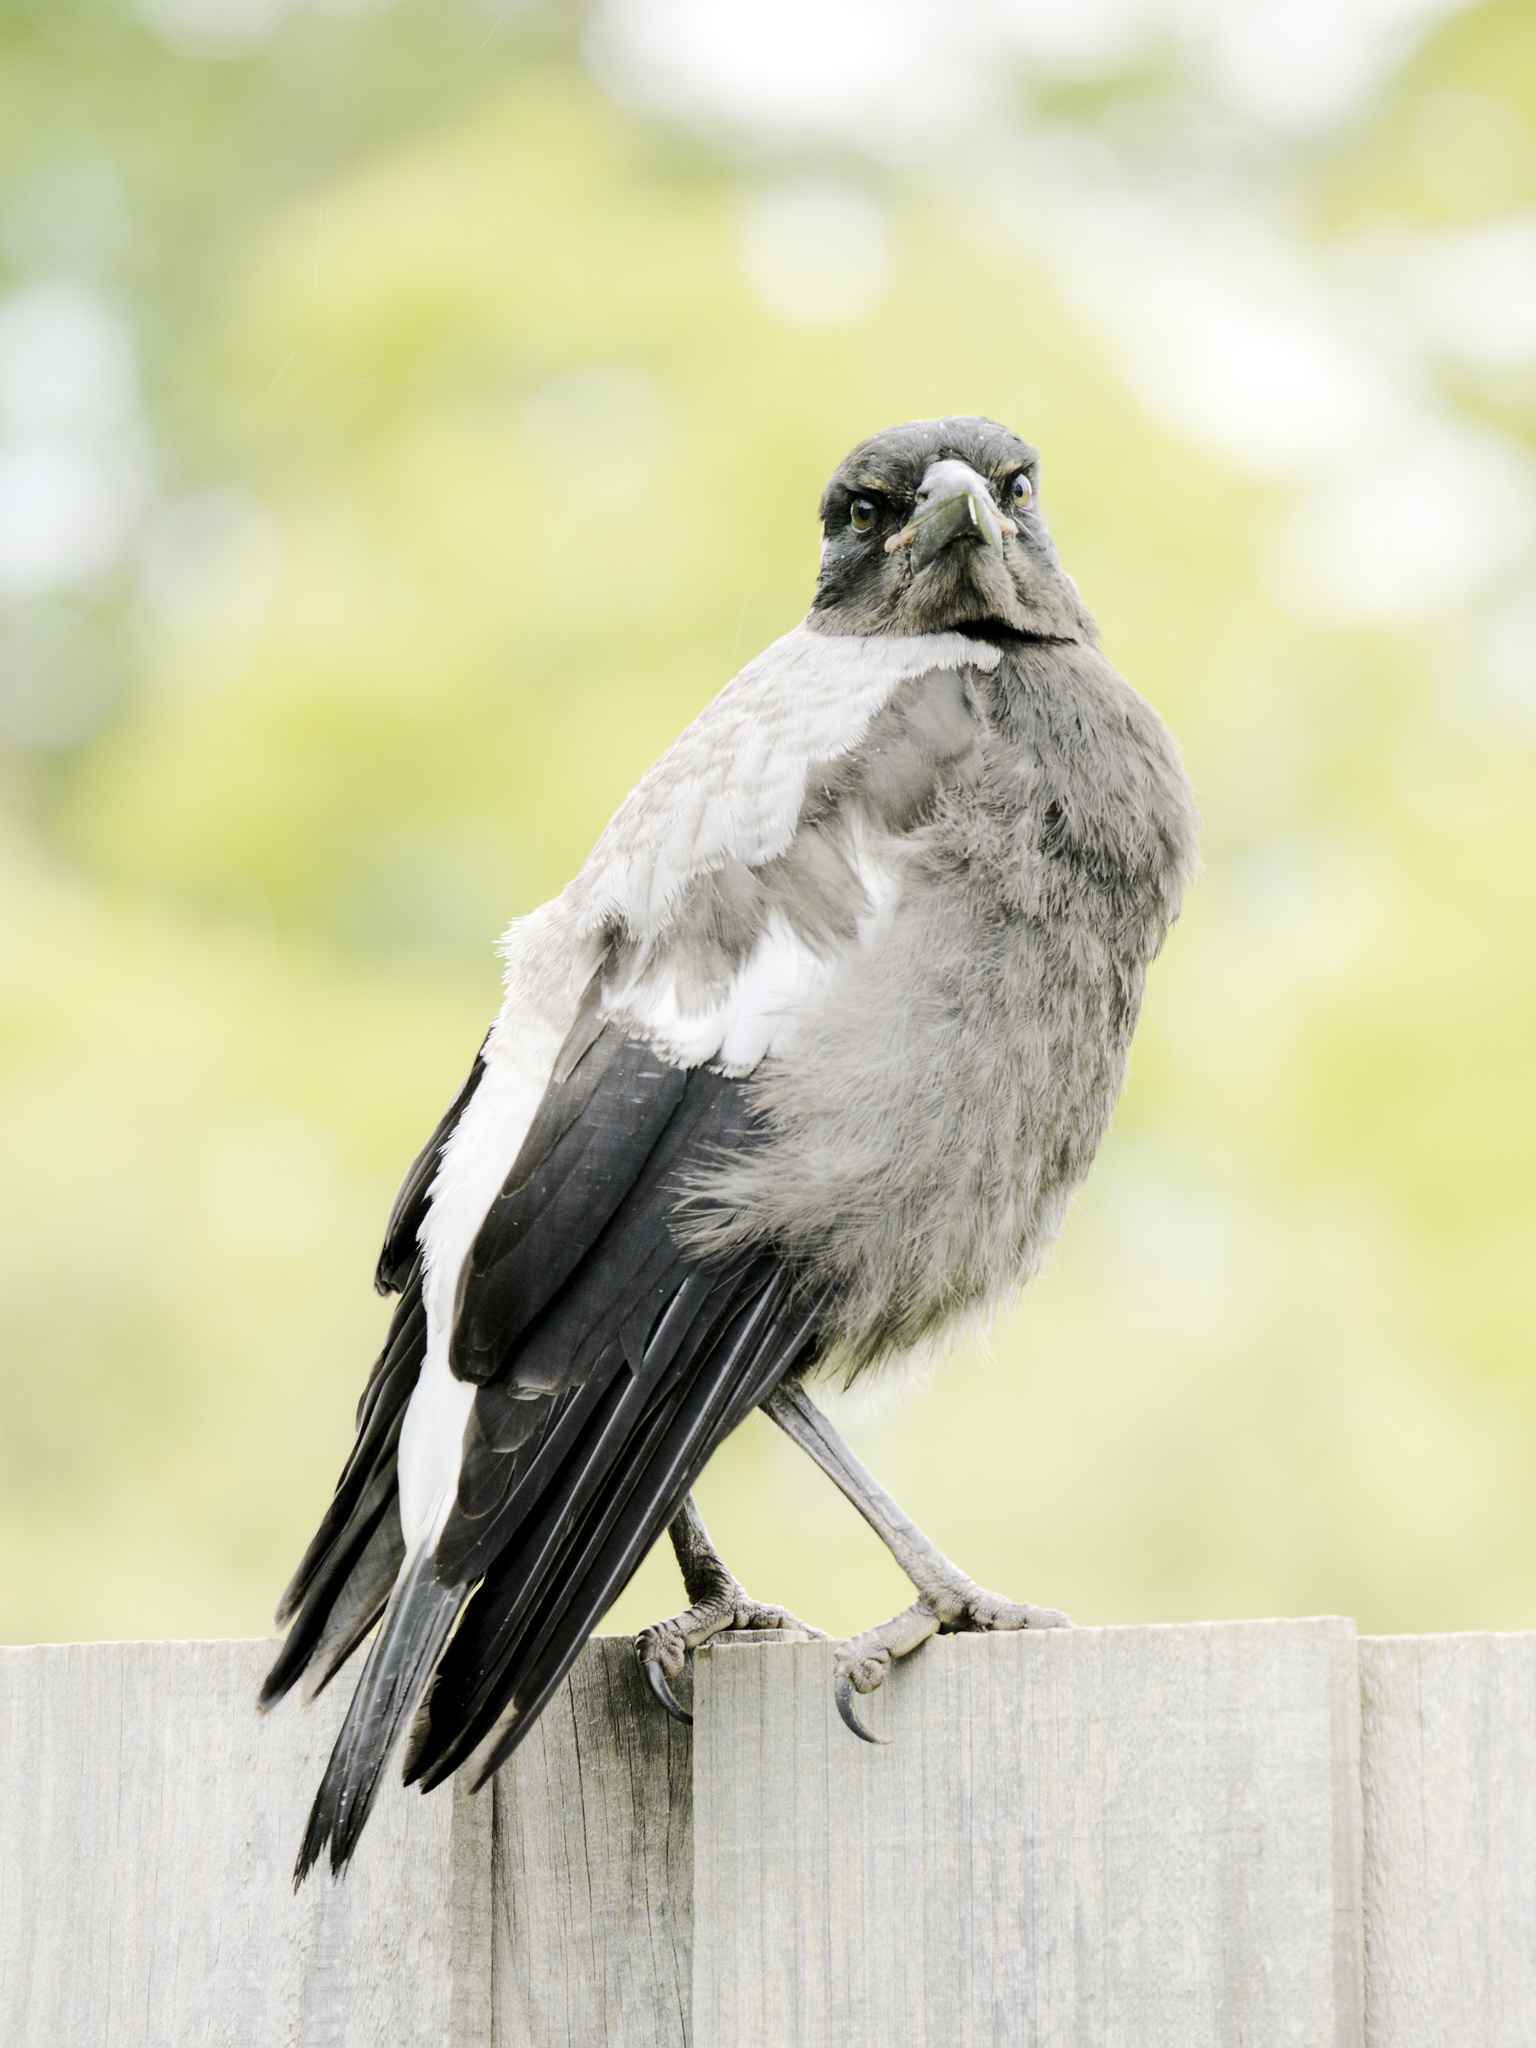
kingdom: Animalia
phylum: Chordata
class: Aves
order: Passeriformes
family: Cracticidae
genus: Gymnorhina
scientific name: Gymnorhina tibicen
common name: Australian magpie
